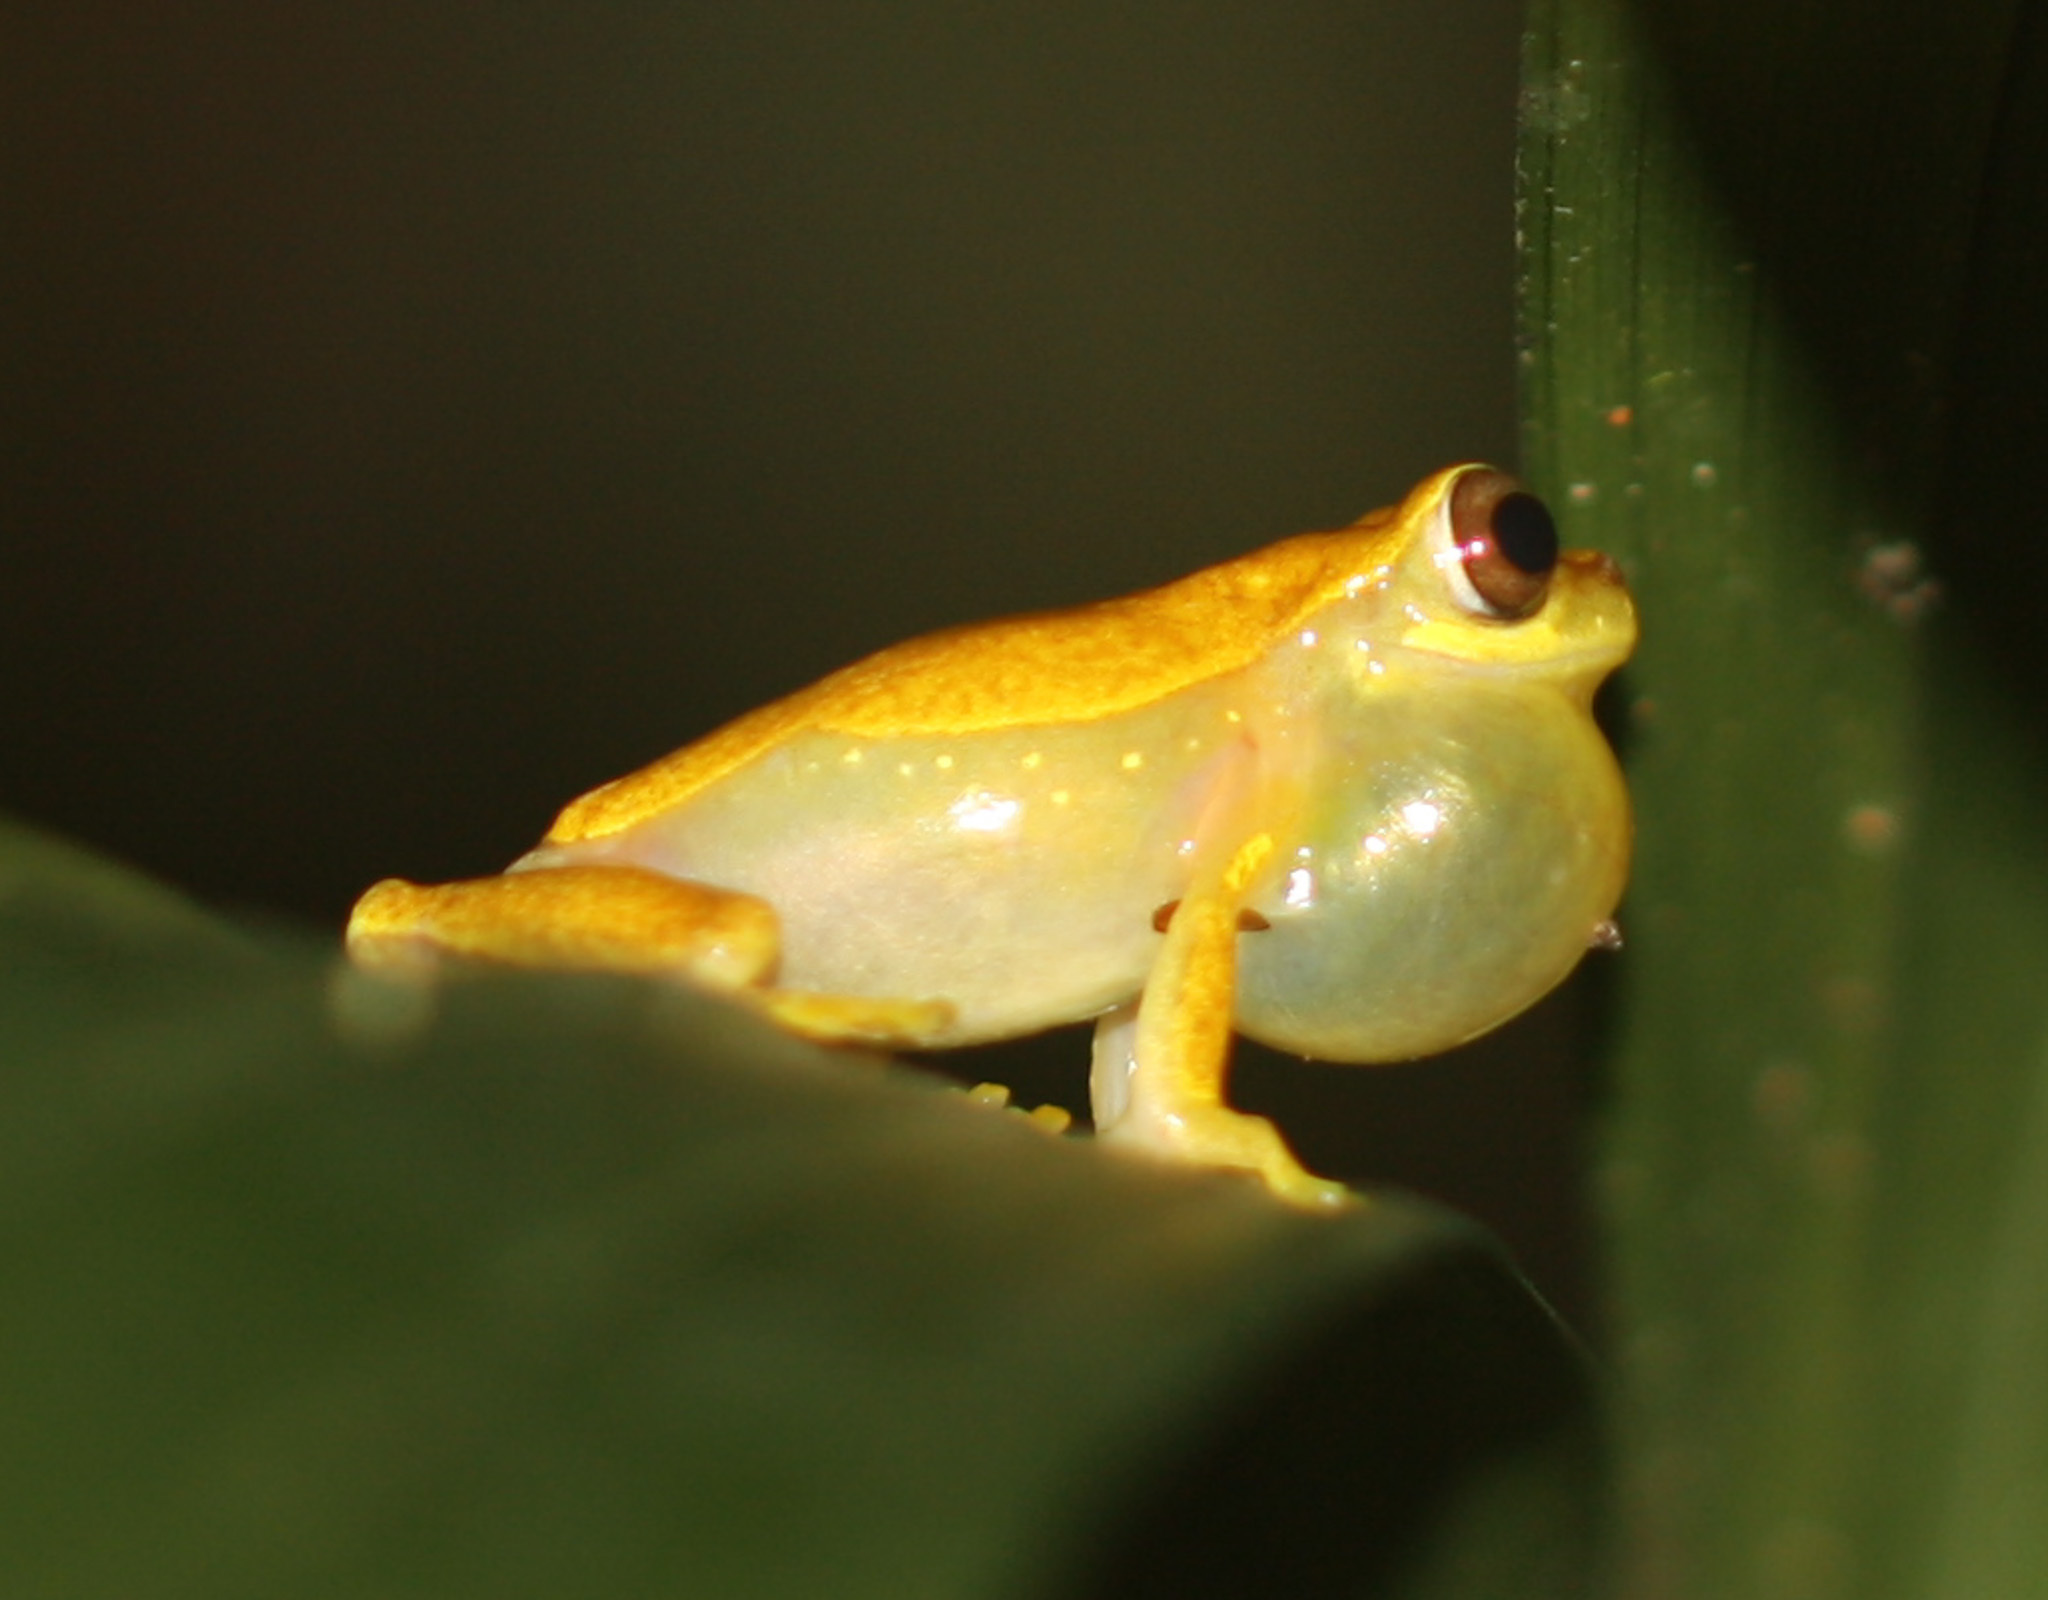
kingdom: Animalia
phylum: Chordata
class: Amphibia
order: Anura
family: Hylidae
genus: Dendropsophus
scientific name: Dendropsophus ebraccatus
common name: Hourglass treefrog
